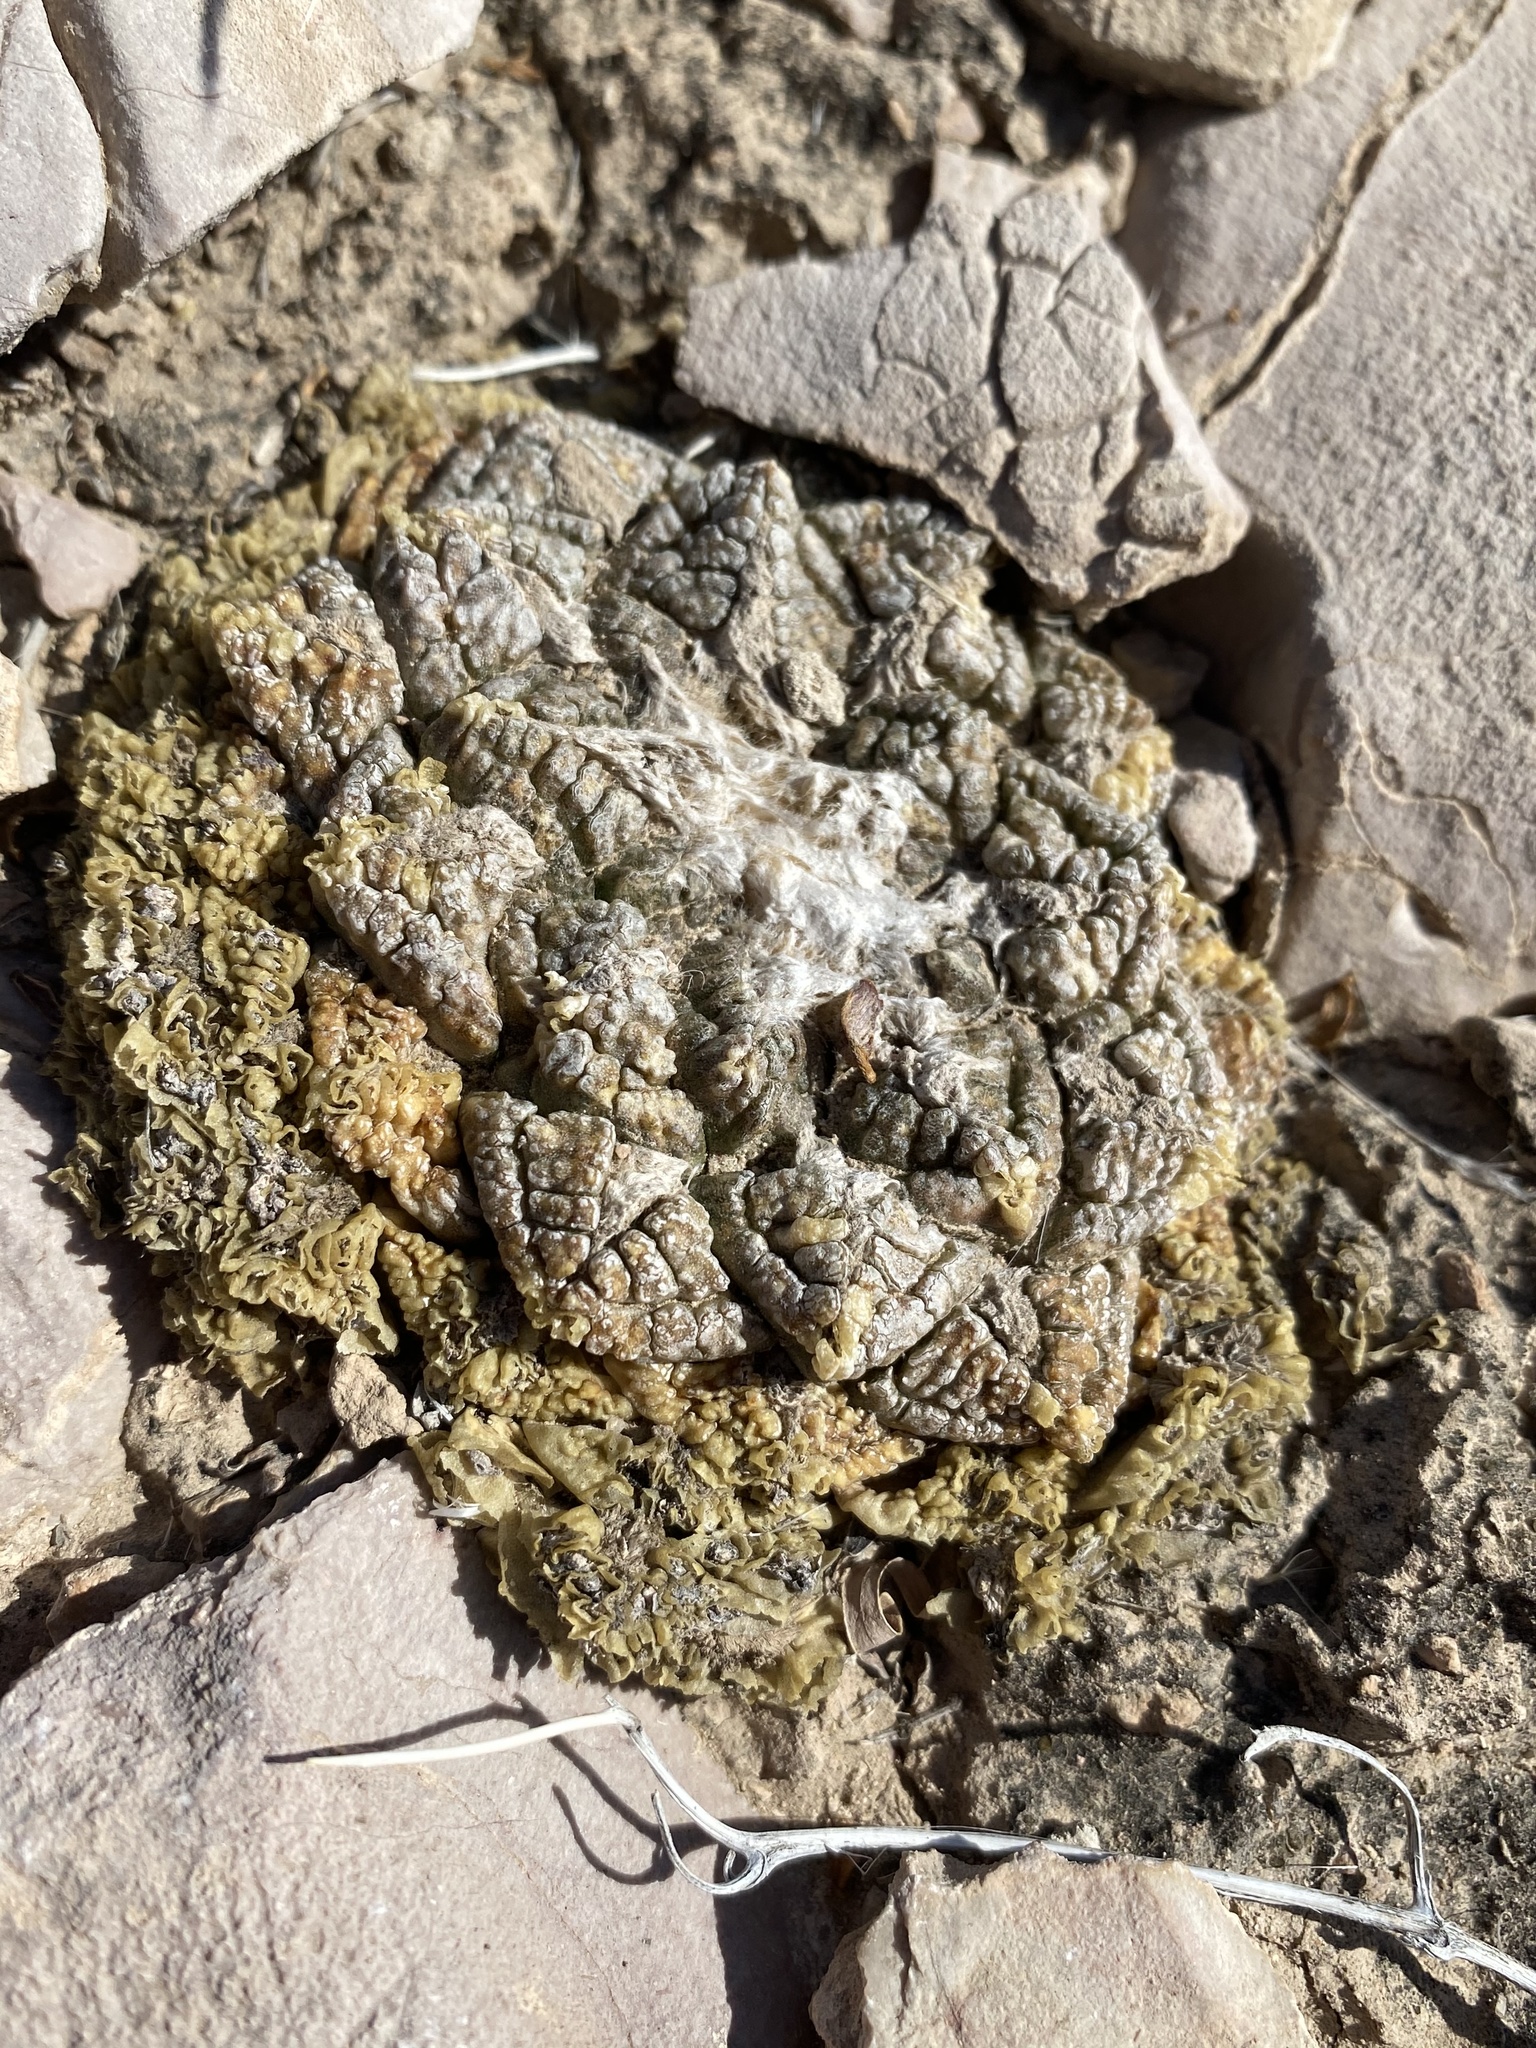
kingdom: Plantae
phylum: Tracheophyta
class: Magnoliopsida
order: Caryophyllales
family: Cactaceae
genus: Ariocarpus
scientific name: Ariocarpus fissuratus
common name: Chautle-living rock
